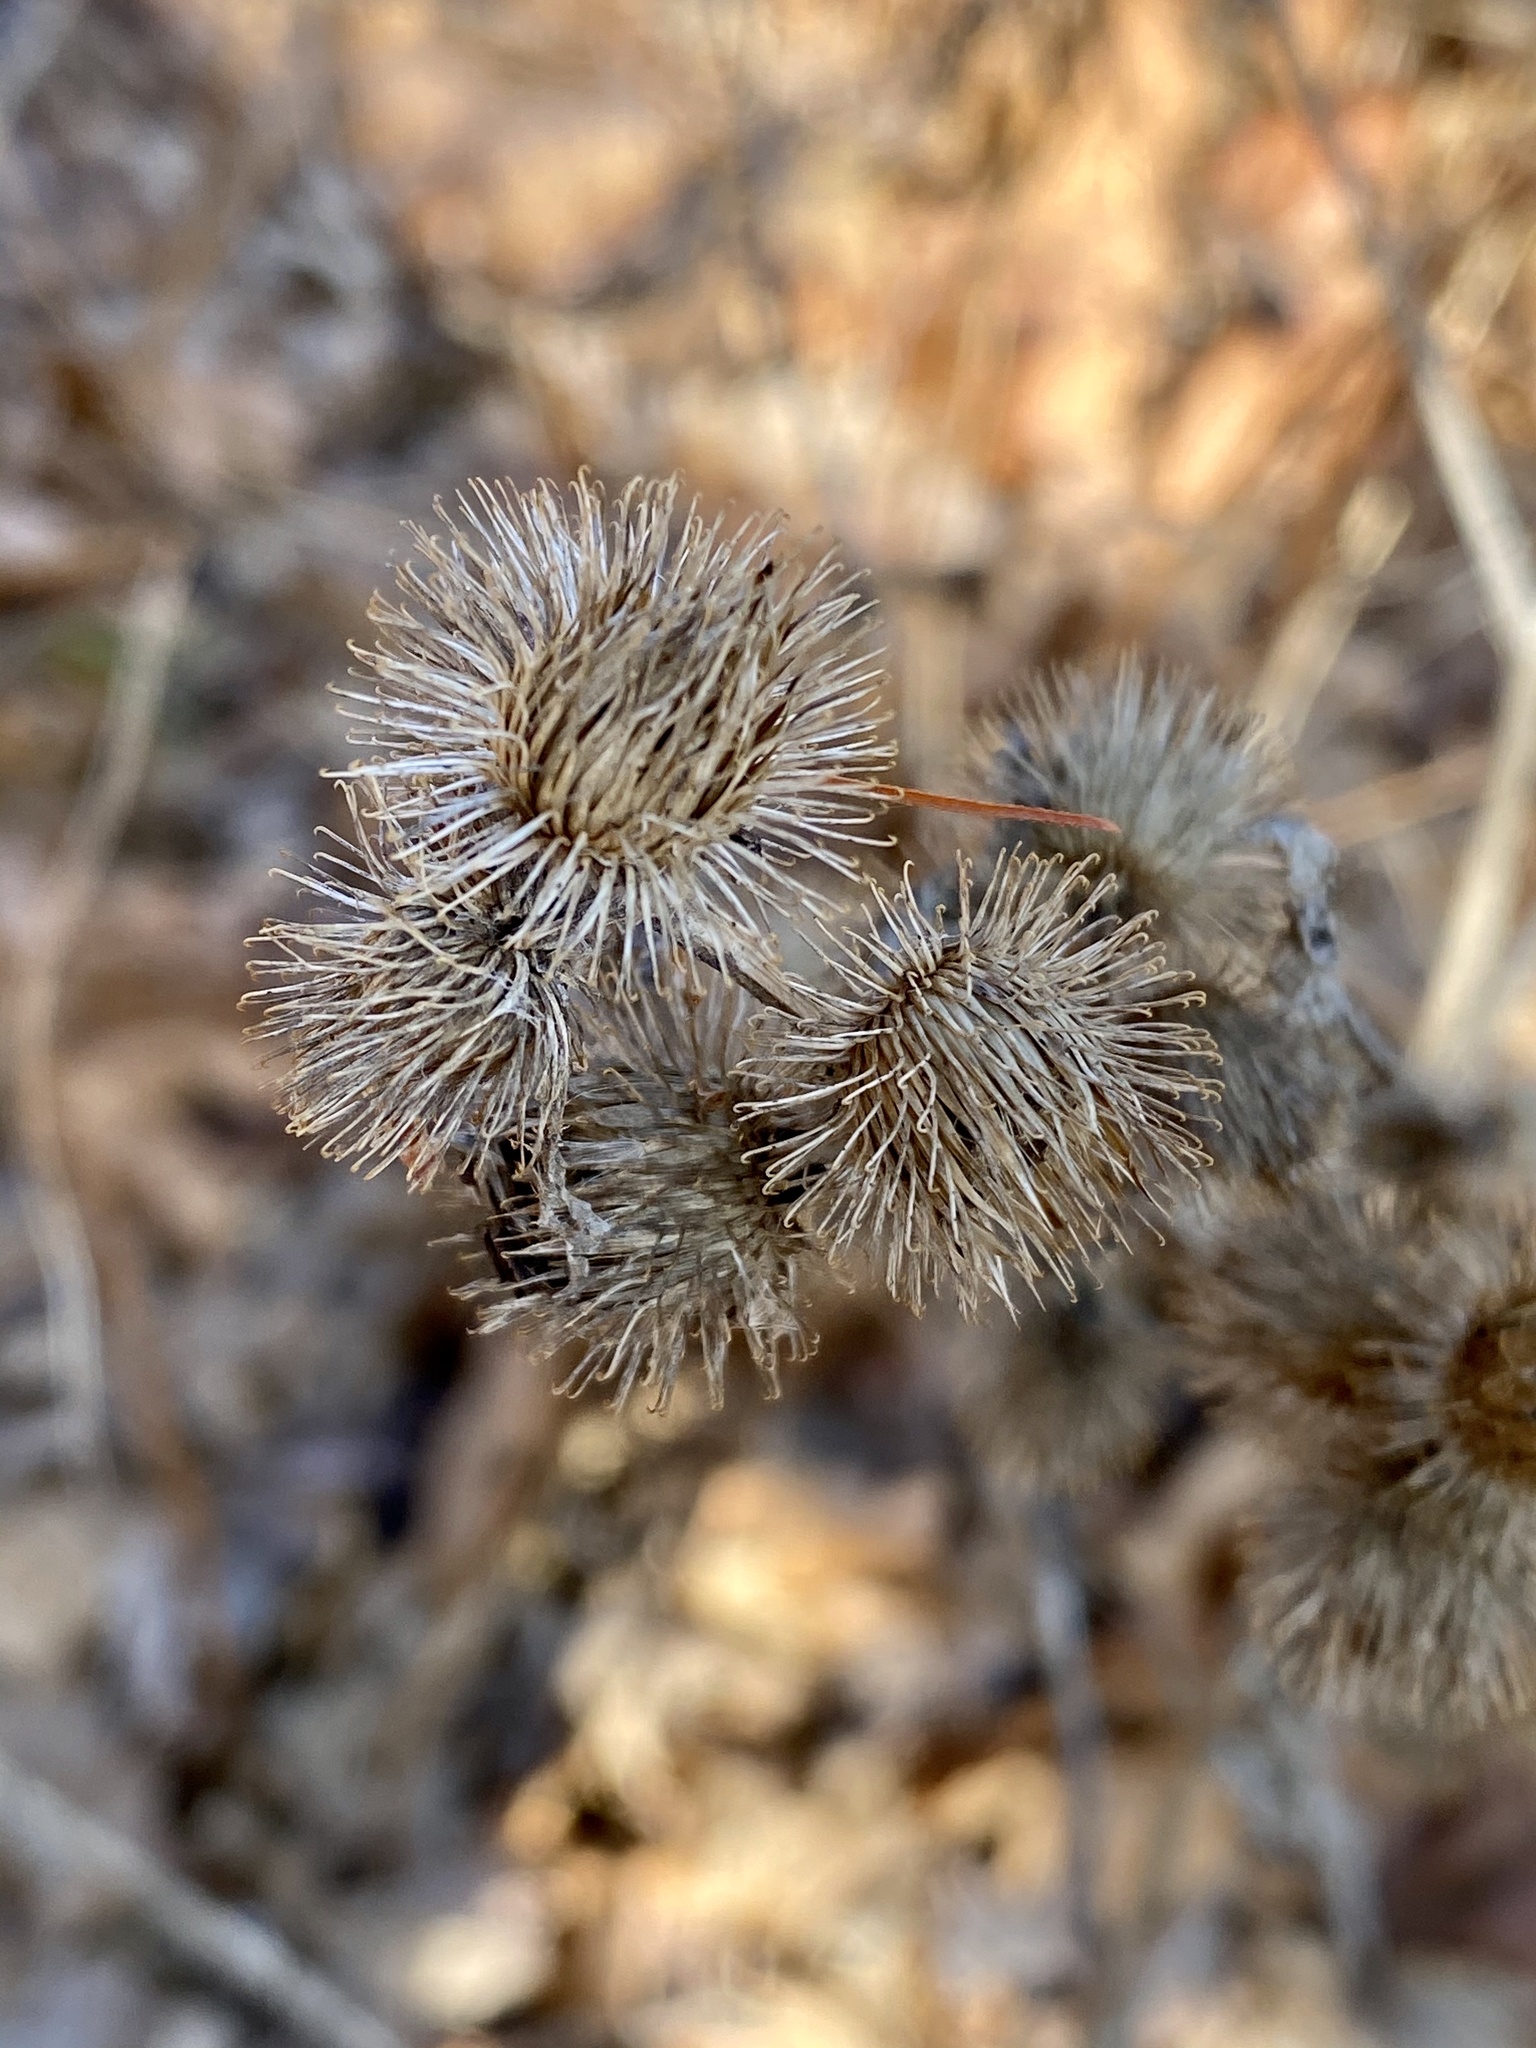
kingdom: Plantae
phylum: Tracheophyta
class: Magnoliopsida
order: Asterales
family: Asteraceae
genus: Arctium
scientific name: Arctium minus
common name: Lesser burdock
